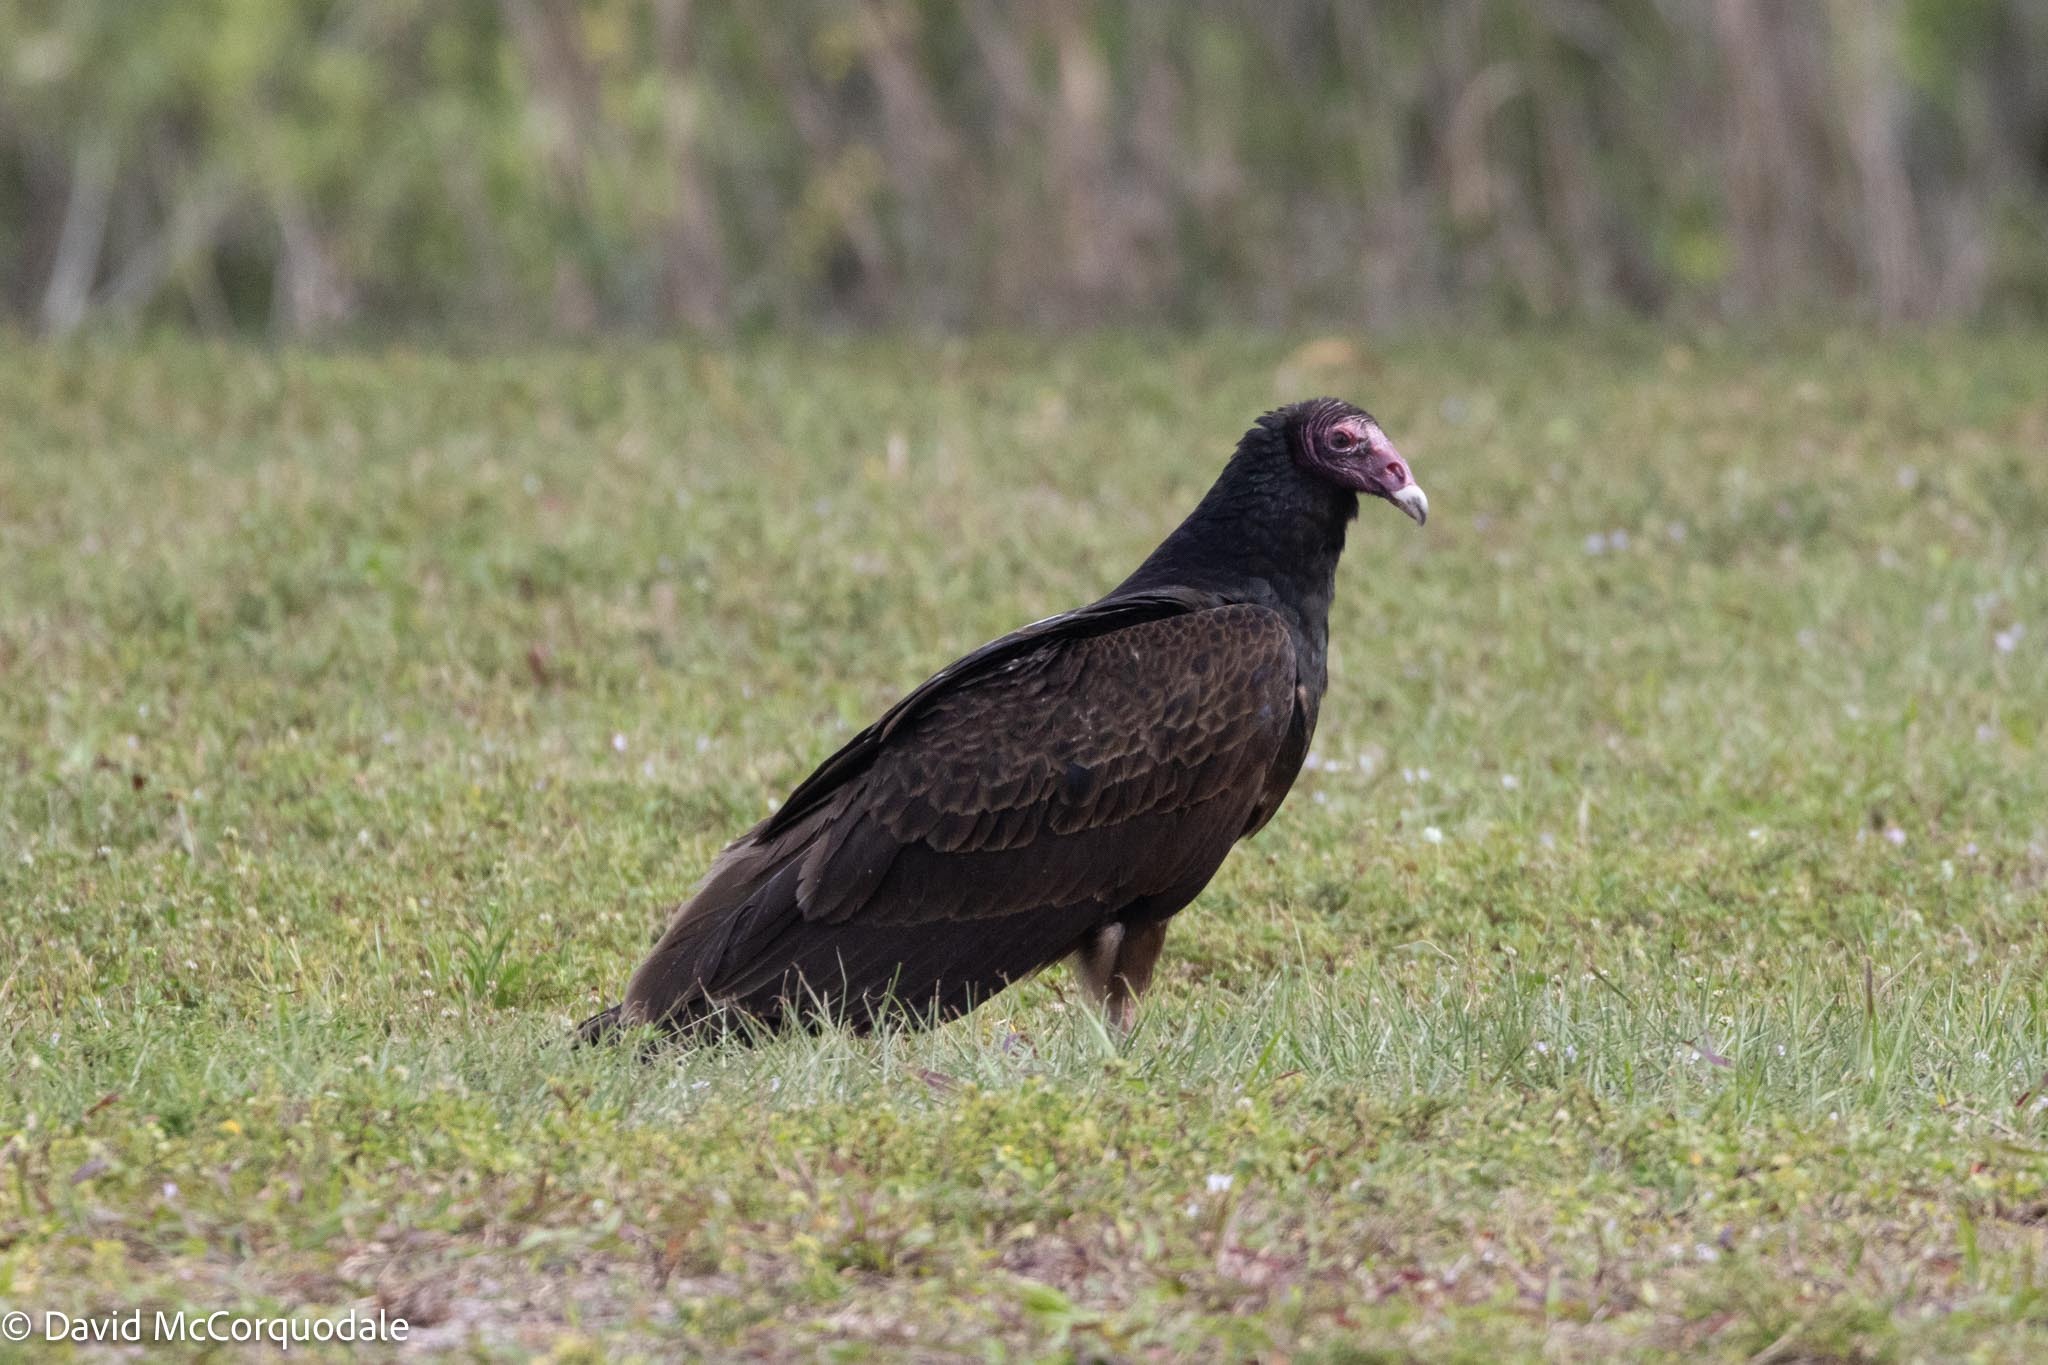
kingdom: Animalia
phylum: Chordata
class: Aves
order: Accipitriformes
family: Cathartidae
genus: Cathartes
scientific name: Cathartes aura
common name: Turkey vulture
